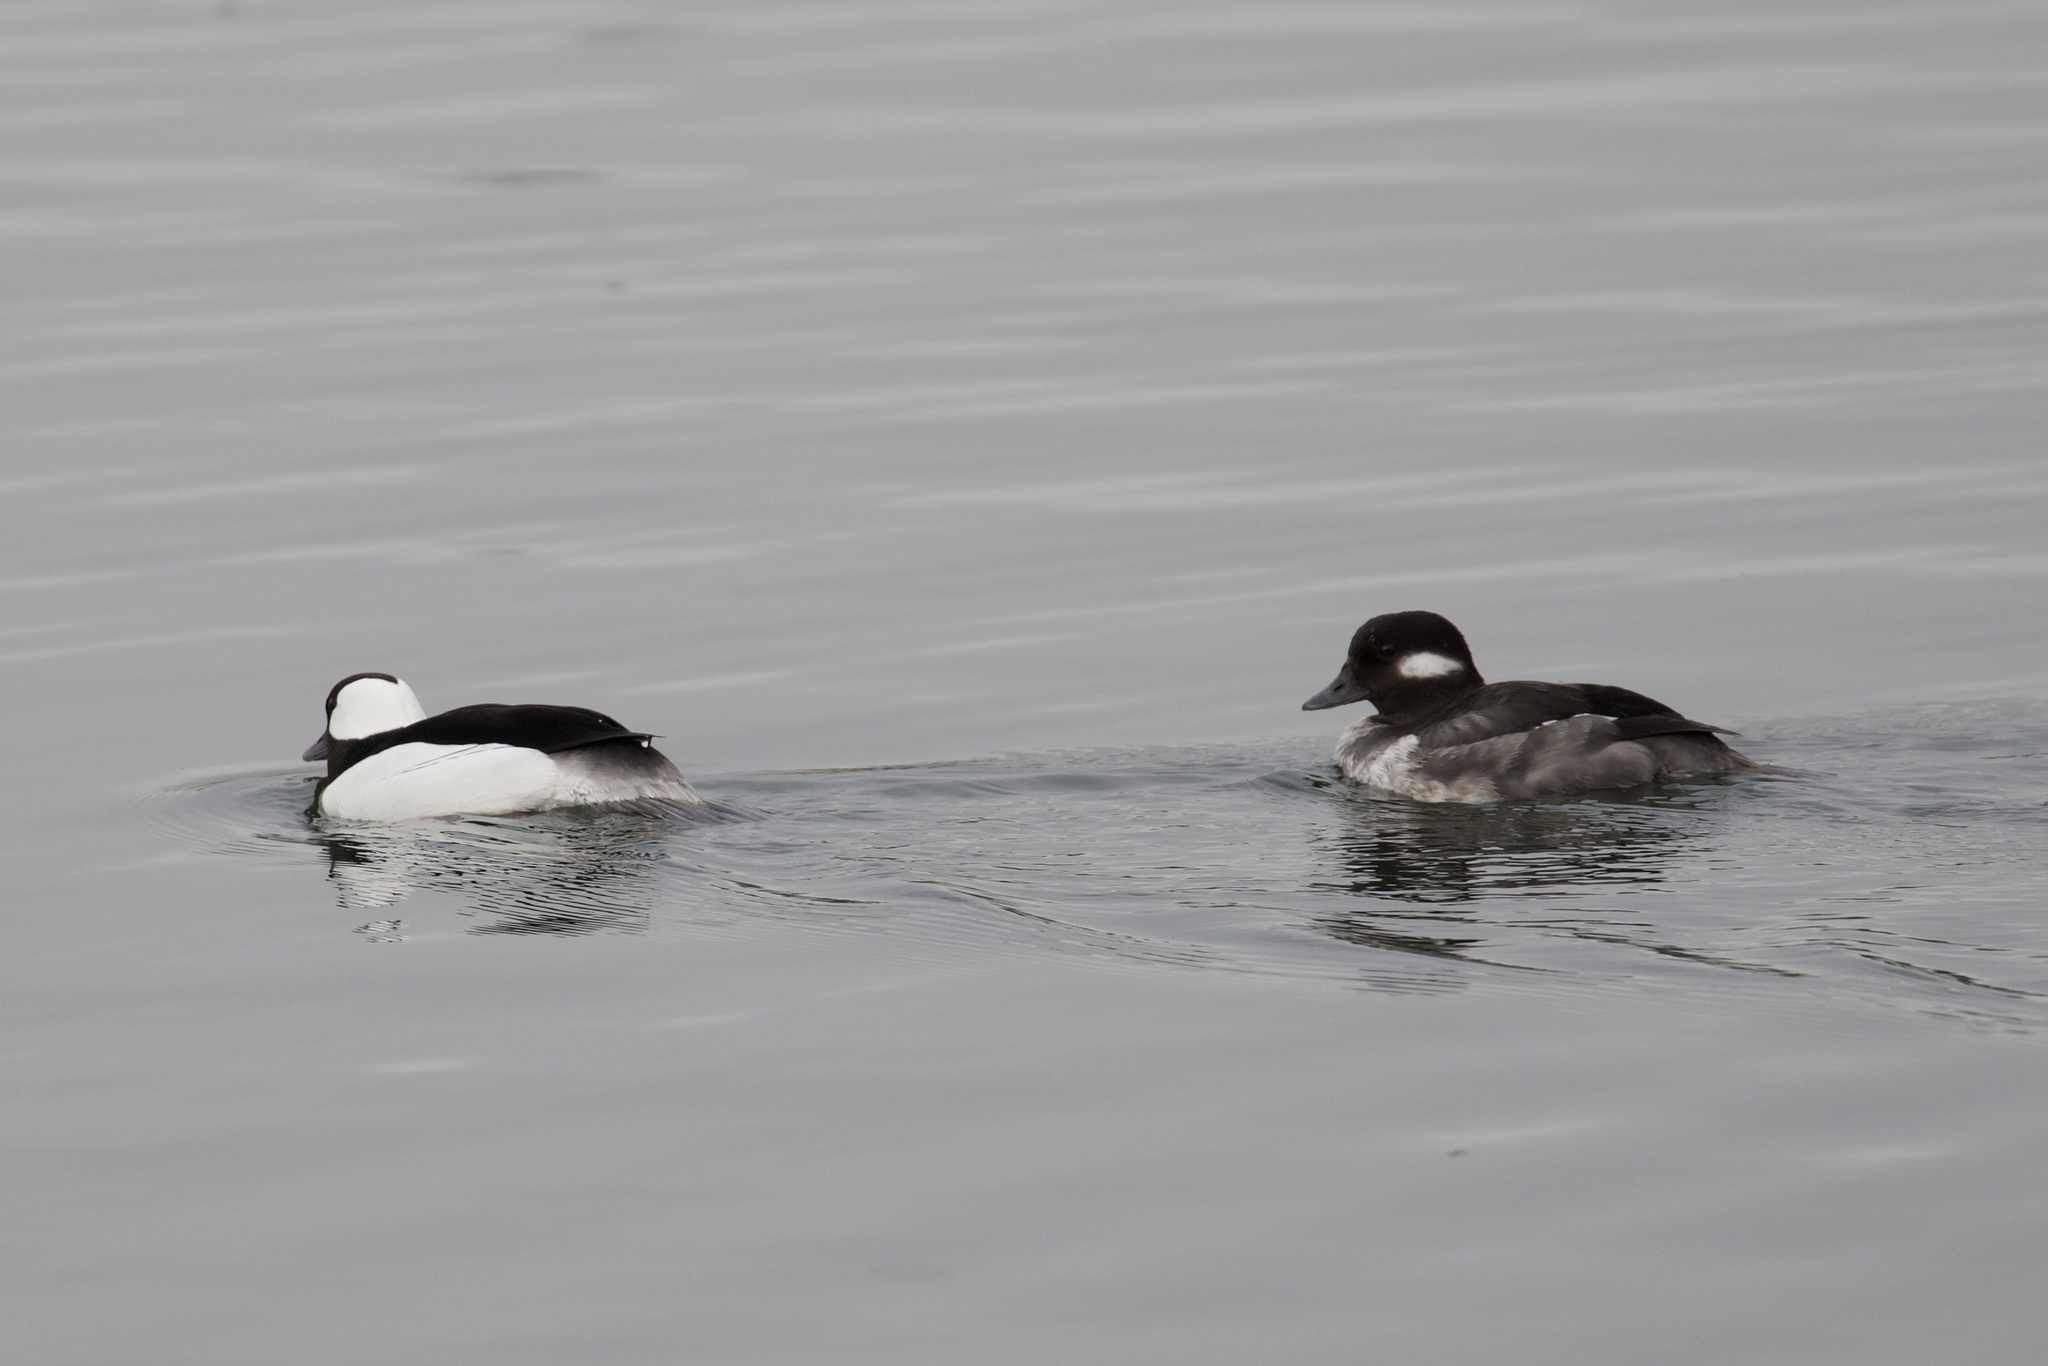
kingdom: Animalia
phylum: Chordata
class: Aves
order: Anseriformes
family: Anatidae
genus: Bucephala
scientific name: Bucephala albeola
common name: Bufflehead
